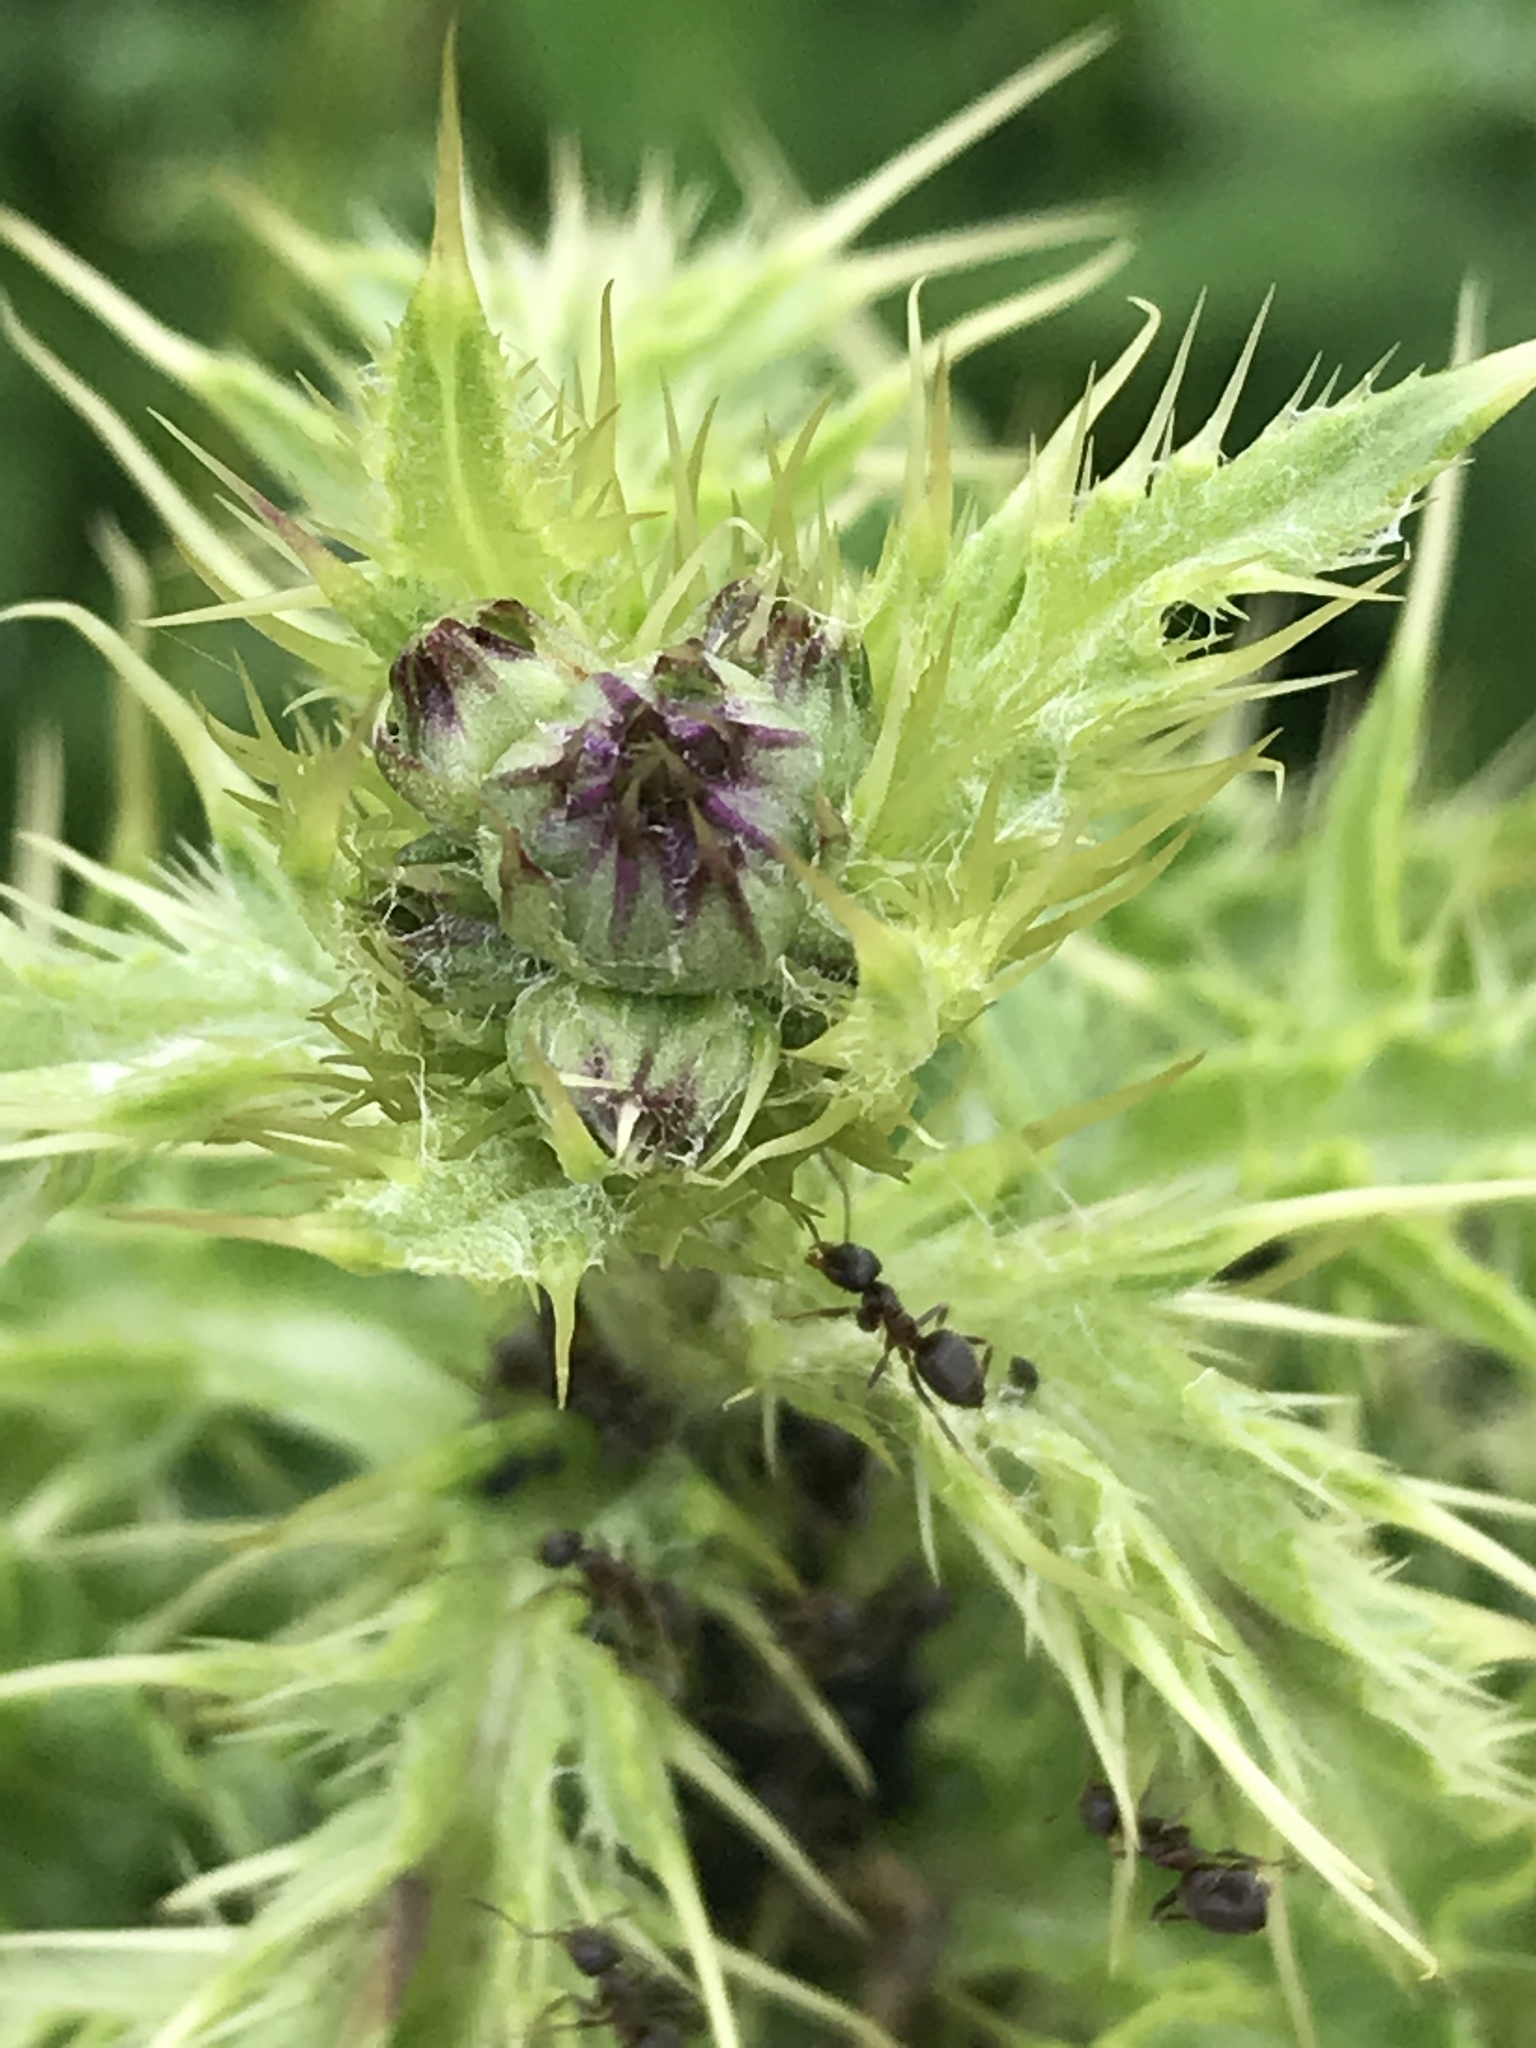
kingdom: Plantae
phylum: Tracheophyta
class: Magnoliopsida
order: Asterales
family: Asteraceae
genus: Cirsium
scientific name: Cirsium arvense
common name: Creeping thistle
